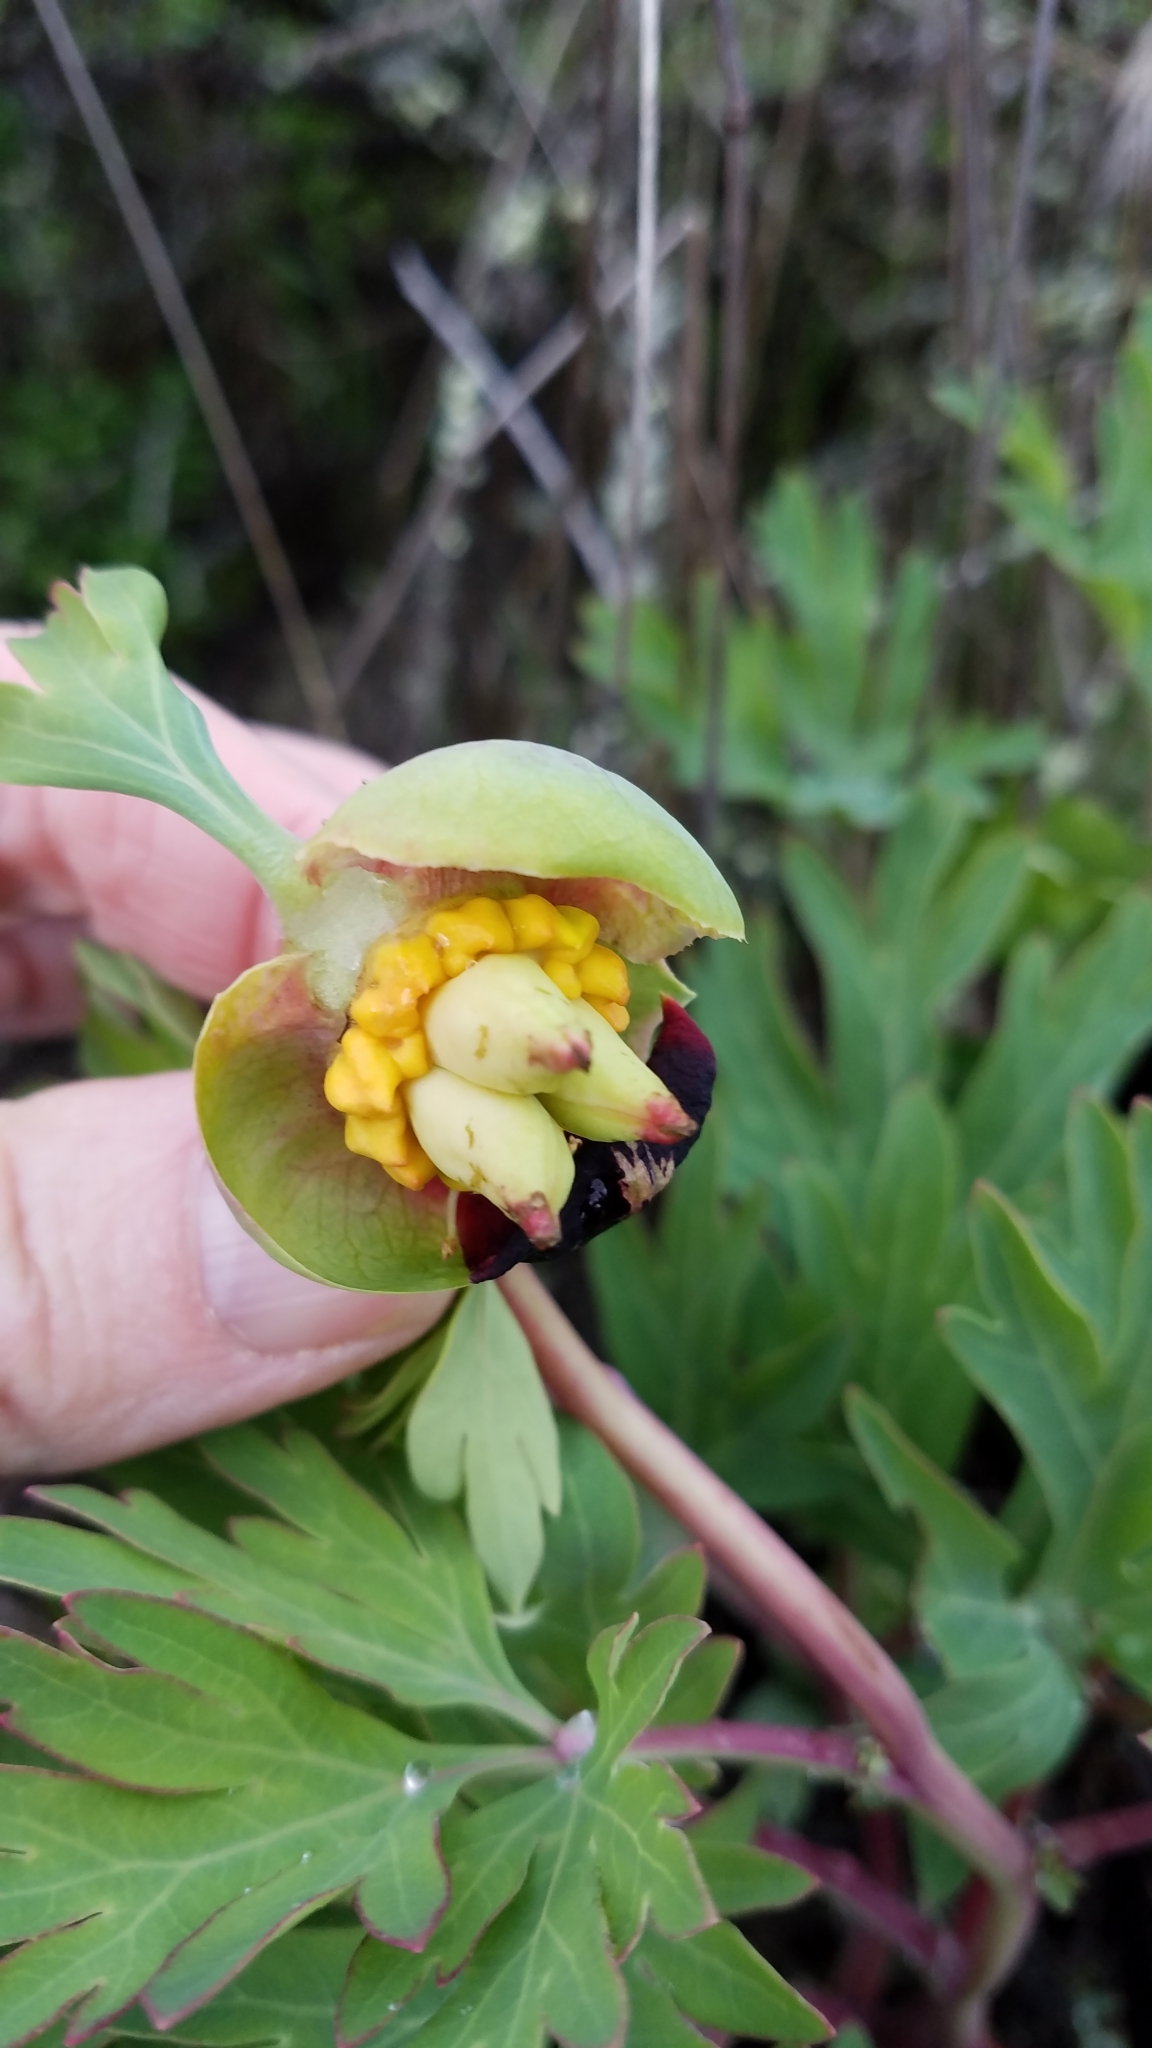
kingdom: Plantae
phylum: Tracheophyta
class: Magnoliopsida
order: Saxifragales
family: Paeoniaceae
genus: Paeonia
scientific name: Paeonia californica
